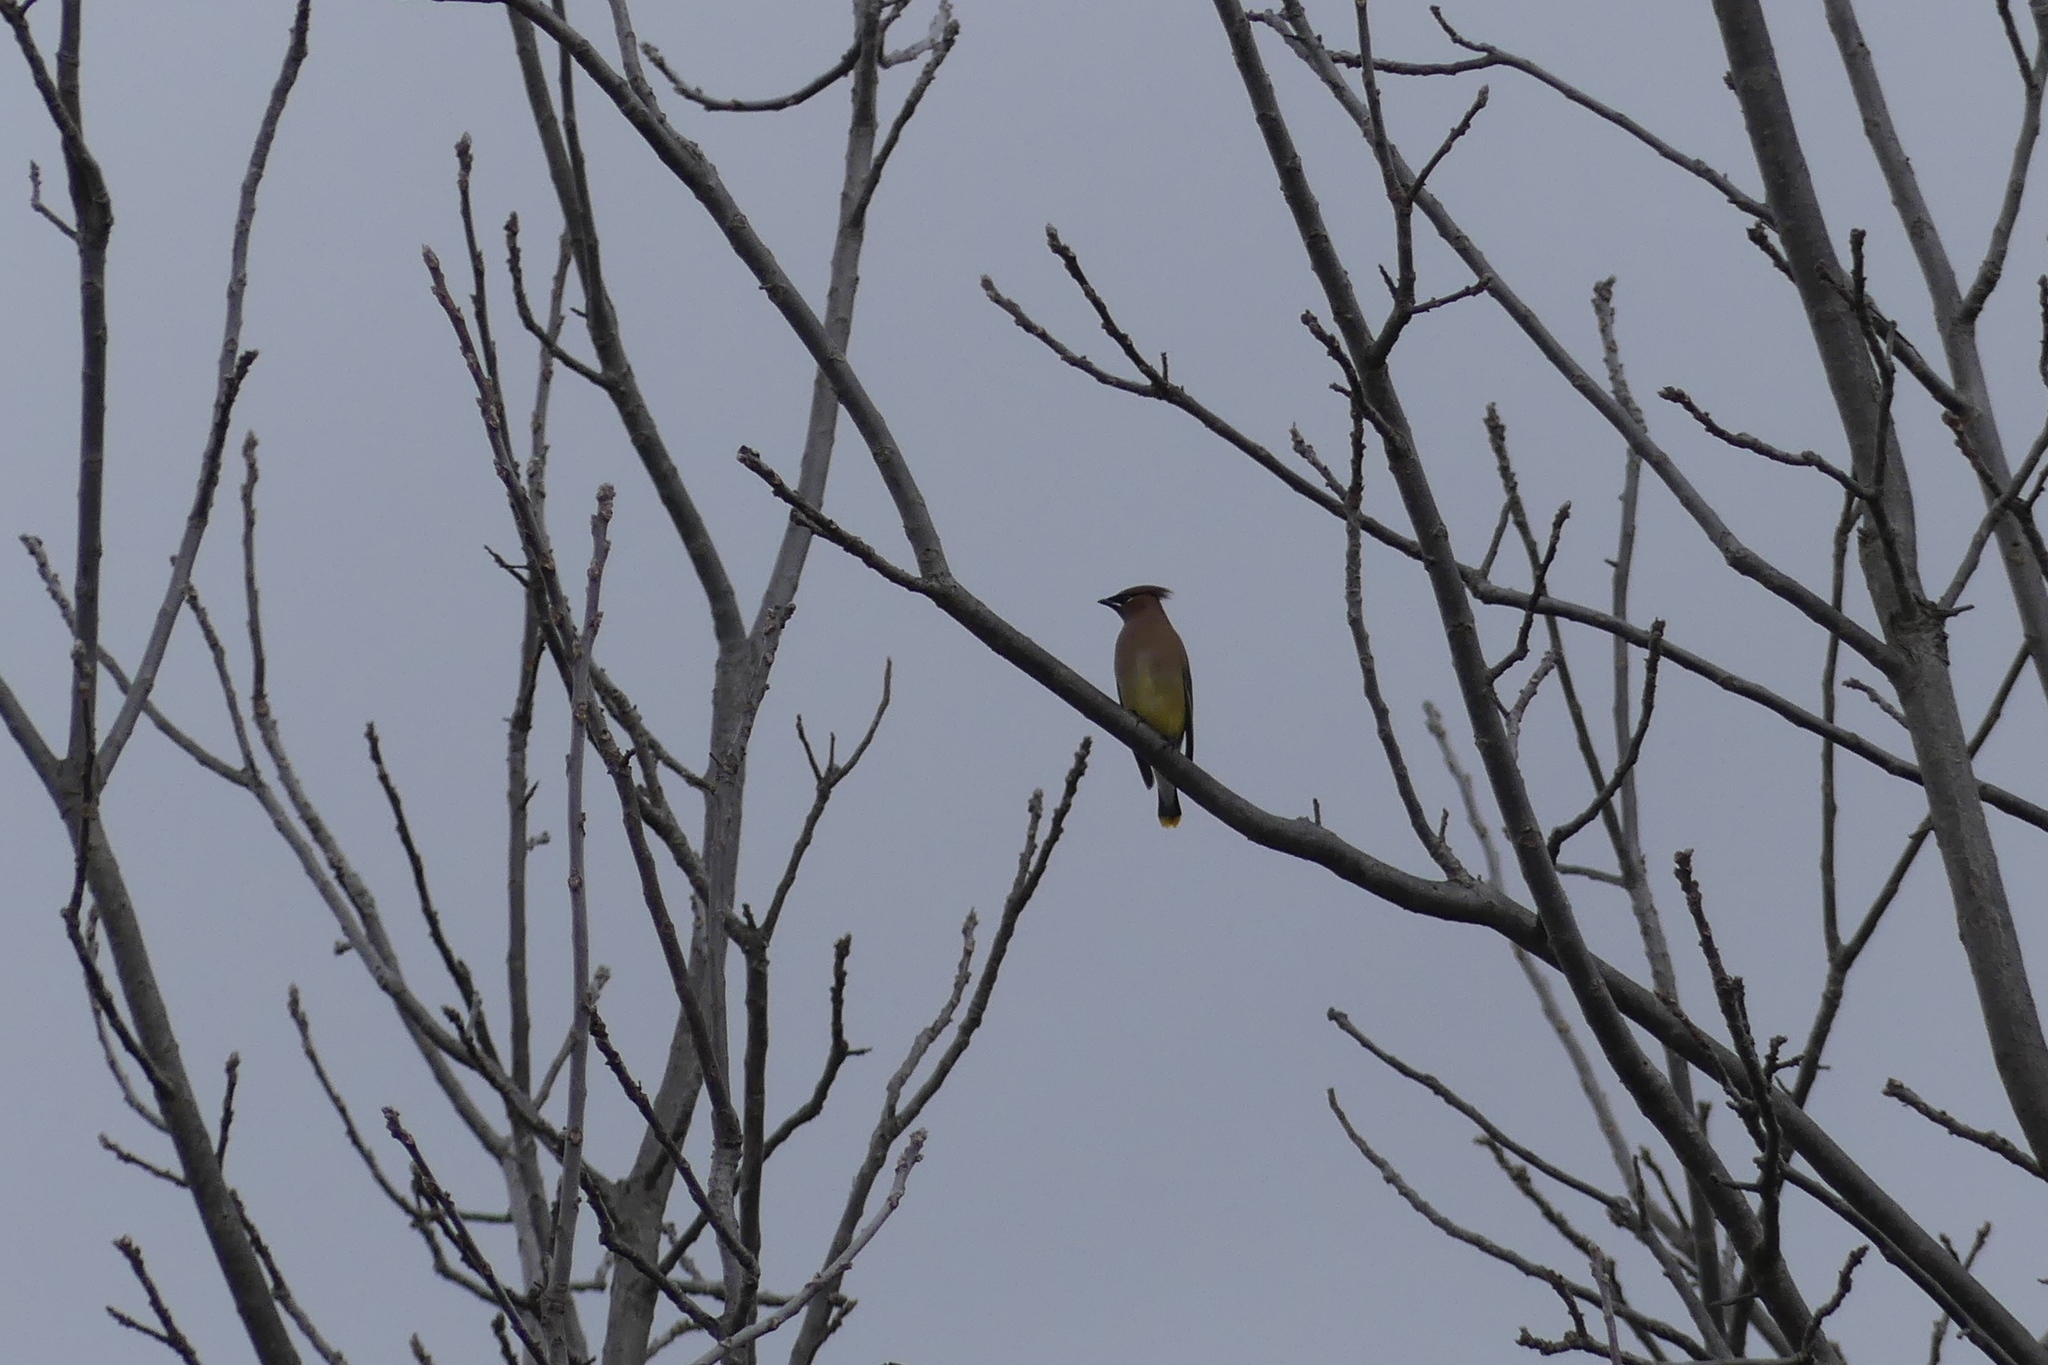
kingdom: Animalia
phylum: Chordata
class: Aves
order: Passeriformes
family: Bombycillidae
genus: Bombycilla
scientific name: Bombycilla cedrorum
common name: Cedar waxwing
